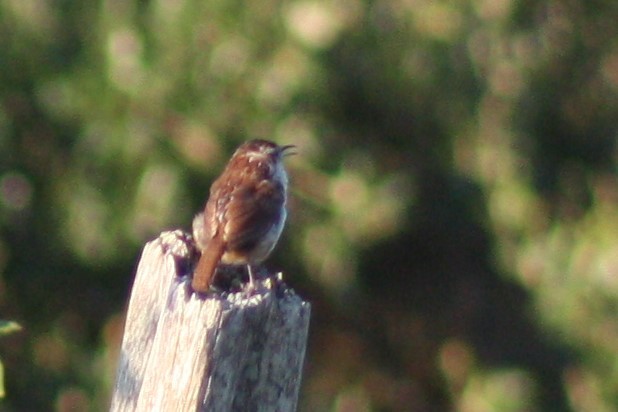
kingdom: Animalia
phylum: Chordata
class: Aves
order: Passeriformes
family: Troglodytidae
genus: Catherpes
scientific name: Catherpes mexicanus
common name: Canyon wren
